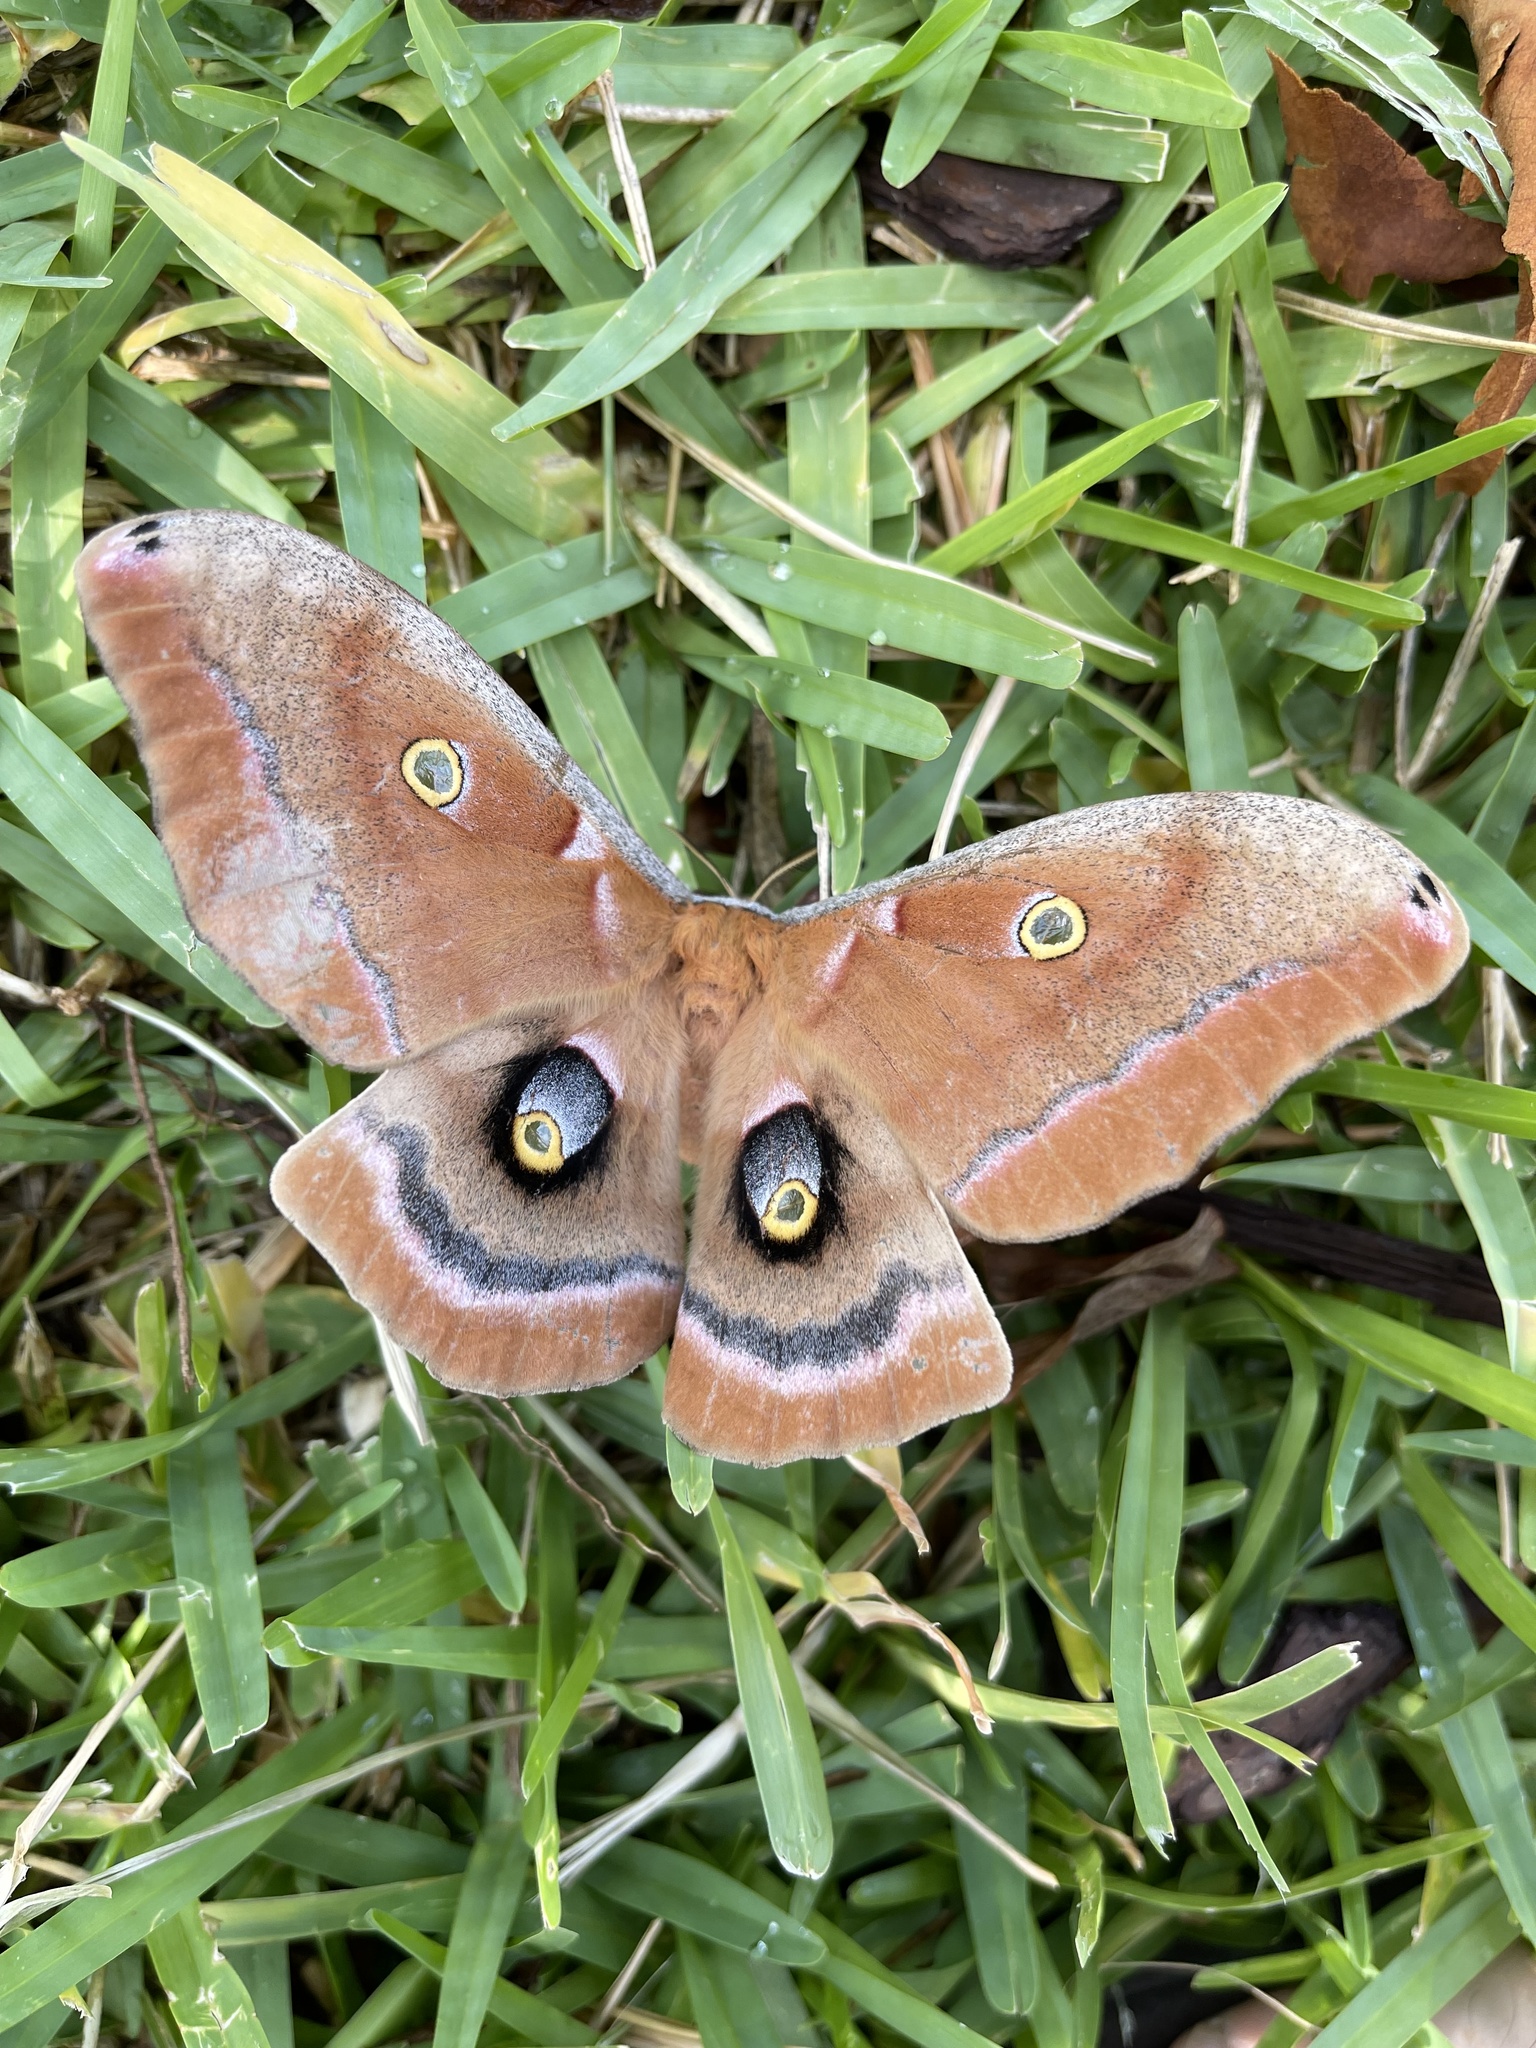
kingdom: Animalia
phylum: Arthropoda
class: Insecta
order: Lepidoptera
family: Saturniidae
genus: Antheraea
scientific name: Antheraea polyphemus
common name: Polyphemus moth
